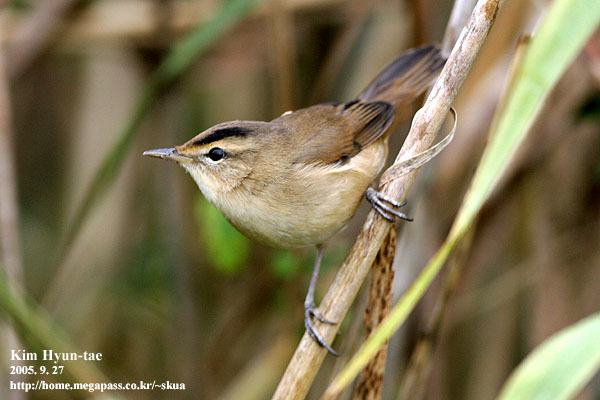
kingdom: Animalia
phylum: Chordata
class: Aves
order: Passeriformes
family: Acrocephalidae
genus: Acrocephalus
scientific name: Acrocephalus bistrigiceps
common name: Black-browed reed warbler
